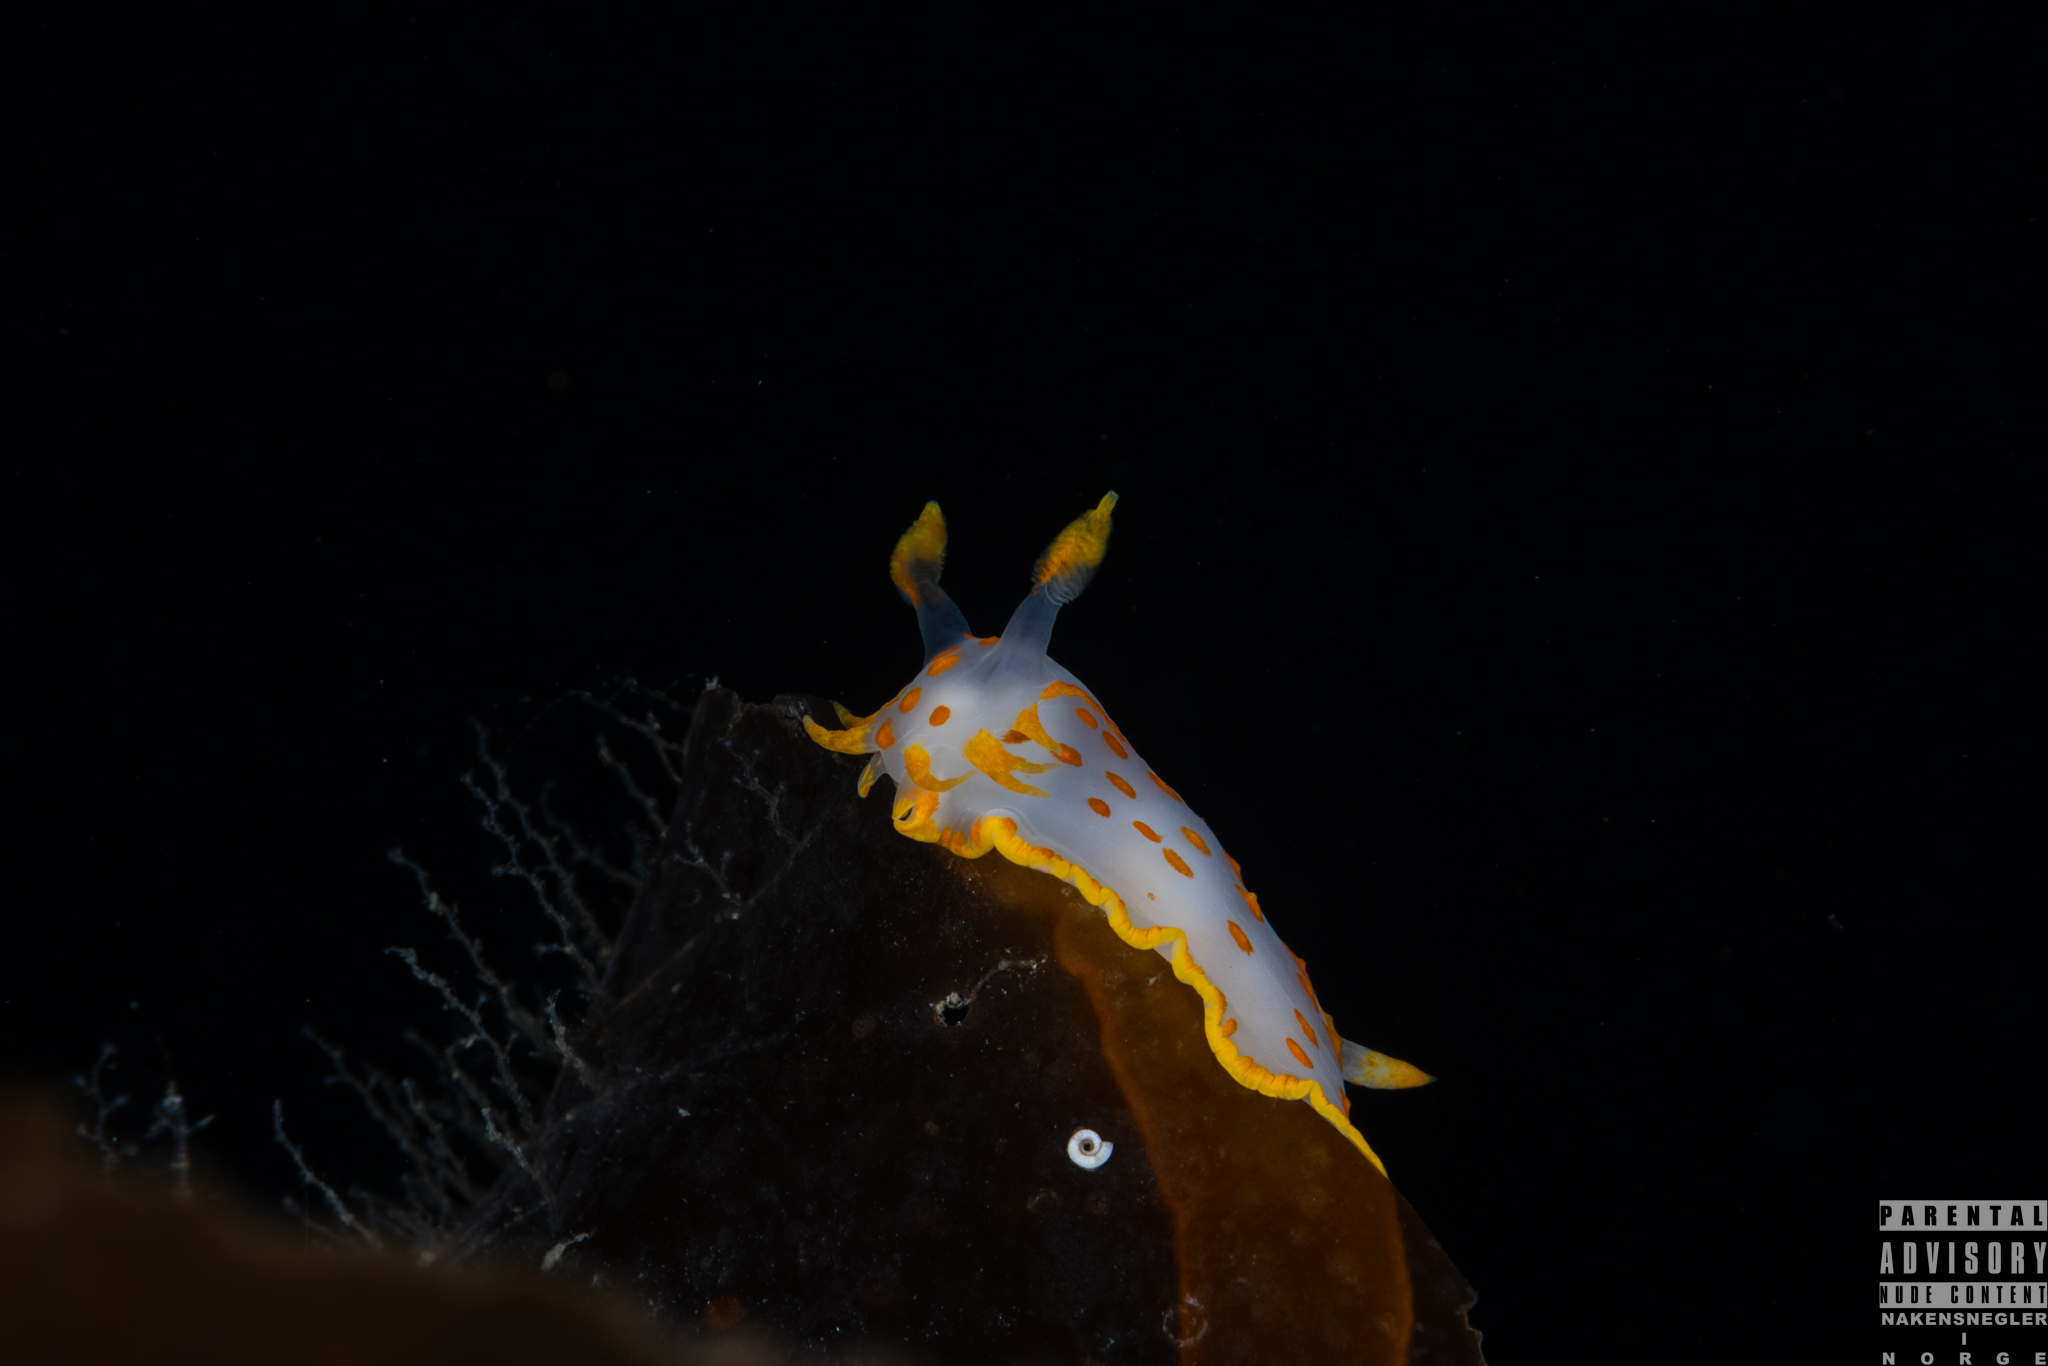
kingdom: Animalia
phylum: Mollusca
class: Gastropoda
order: Nudibranchia
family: Polyceridae
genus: Polycera
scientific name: Polycera quadrilineata
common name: Four-striped polycera
